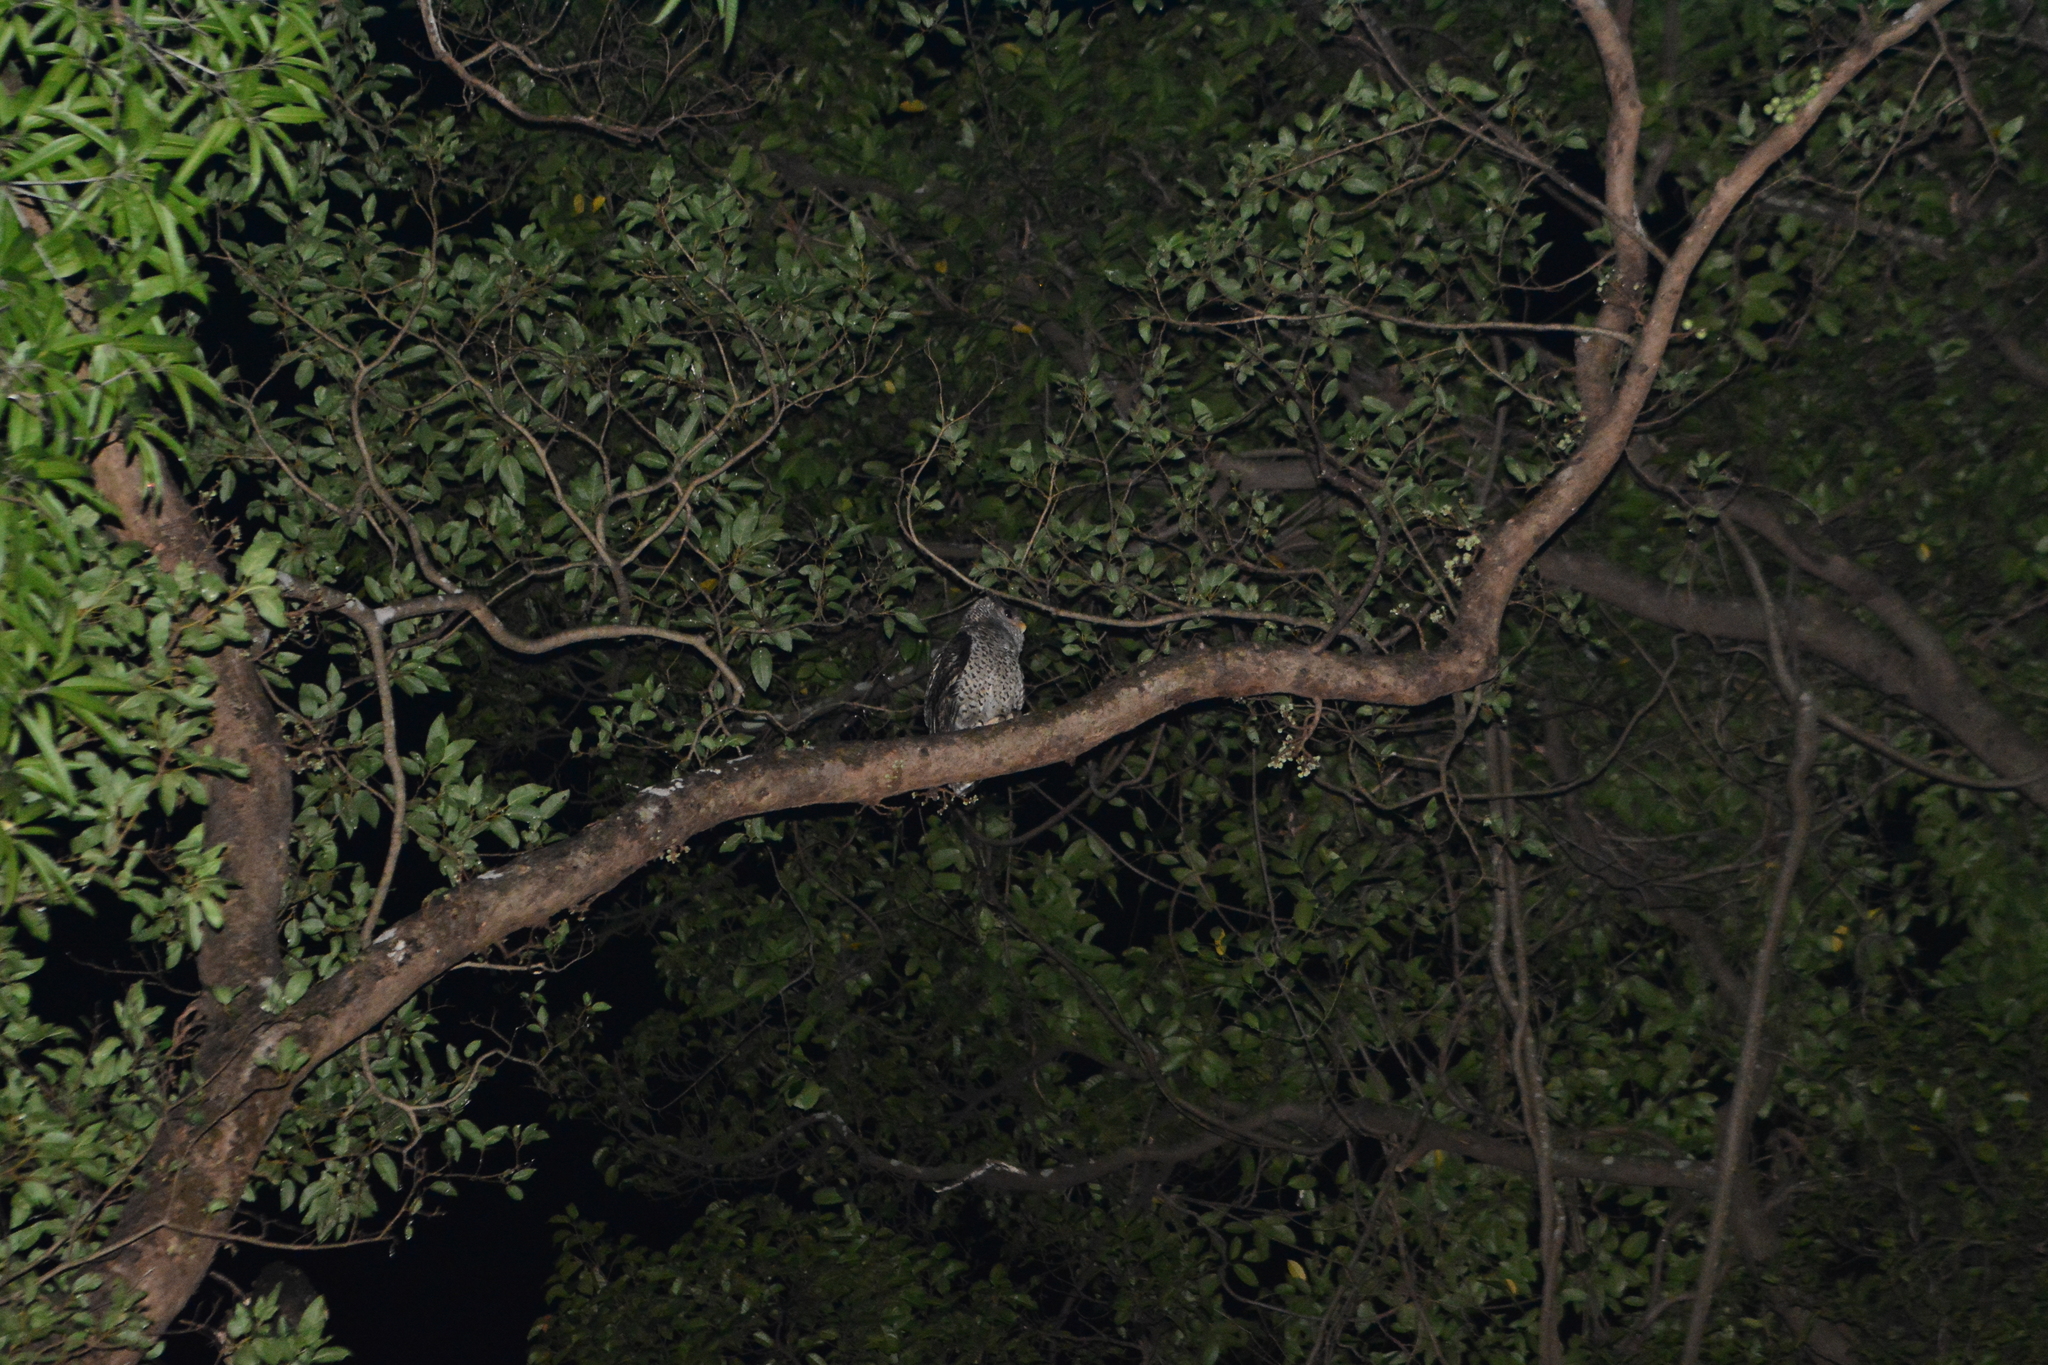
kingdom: Animalia
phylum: Chordata
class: Aves
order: Strigiformes
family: Strigidae
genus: Ketupa
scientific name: Ketupa nipalensis
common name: Spot-bellied eagle-owl
